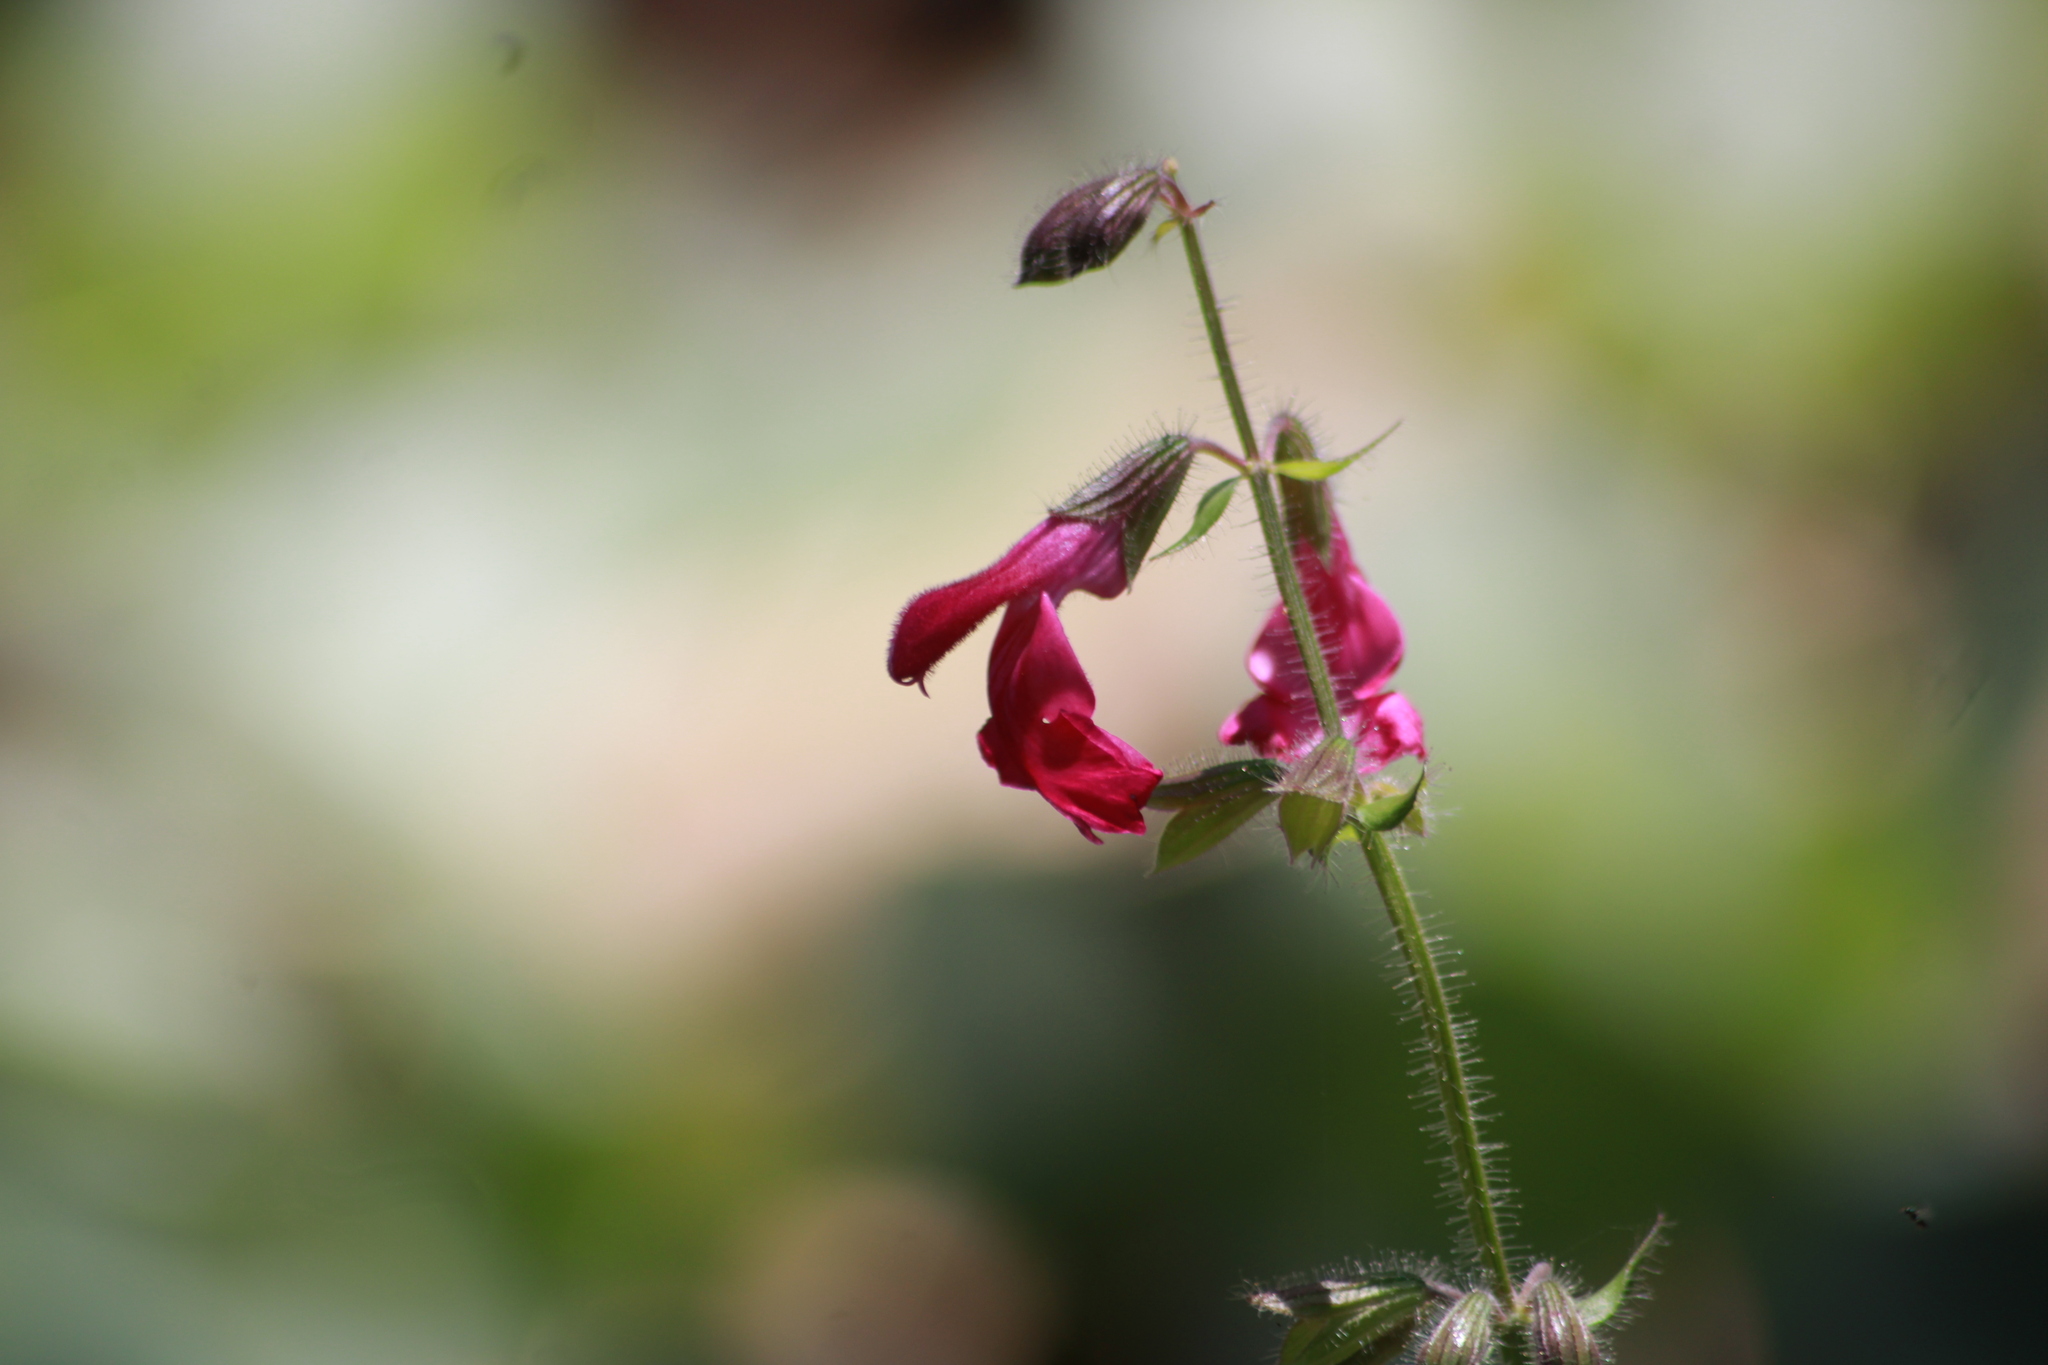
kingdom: Plantae
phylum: Tracheophyta
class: Magnoliopsida
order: Lamiales
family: Lamiaceae
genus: Salvia
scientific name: Salvia angustiarum
